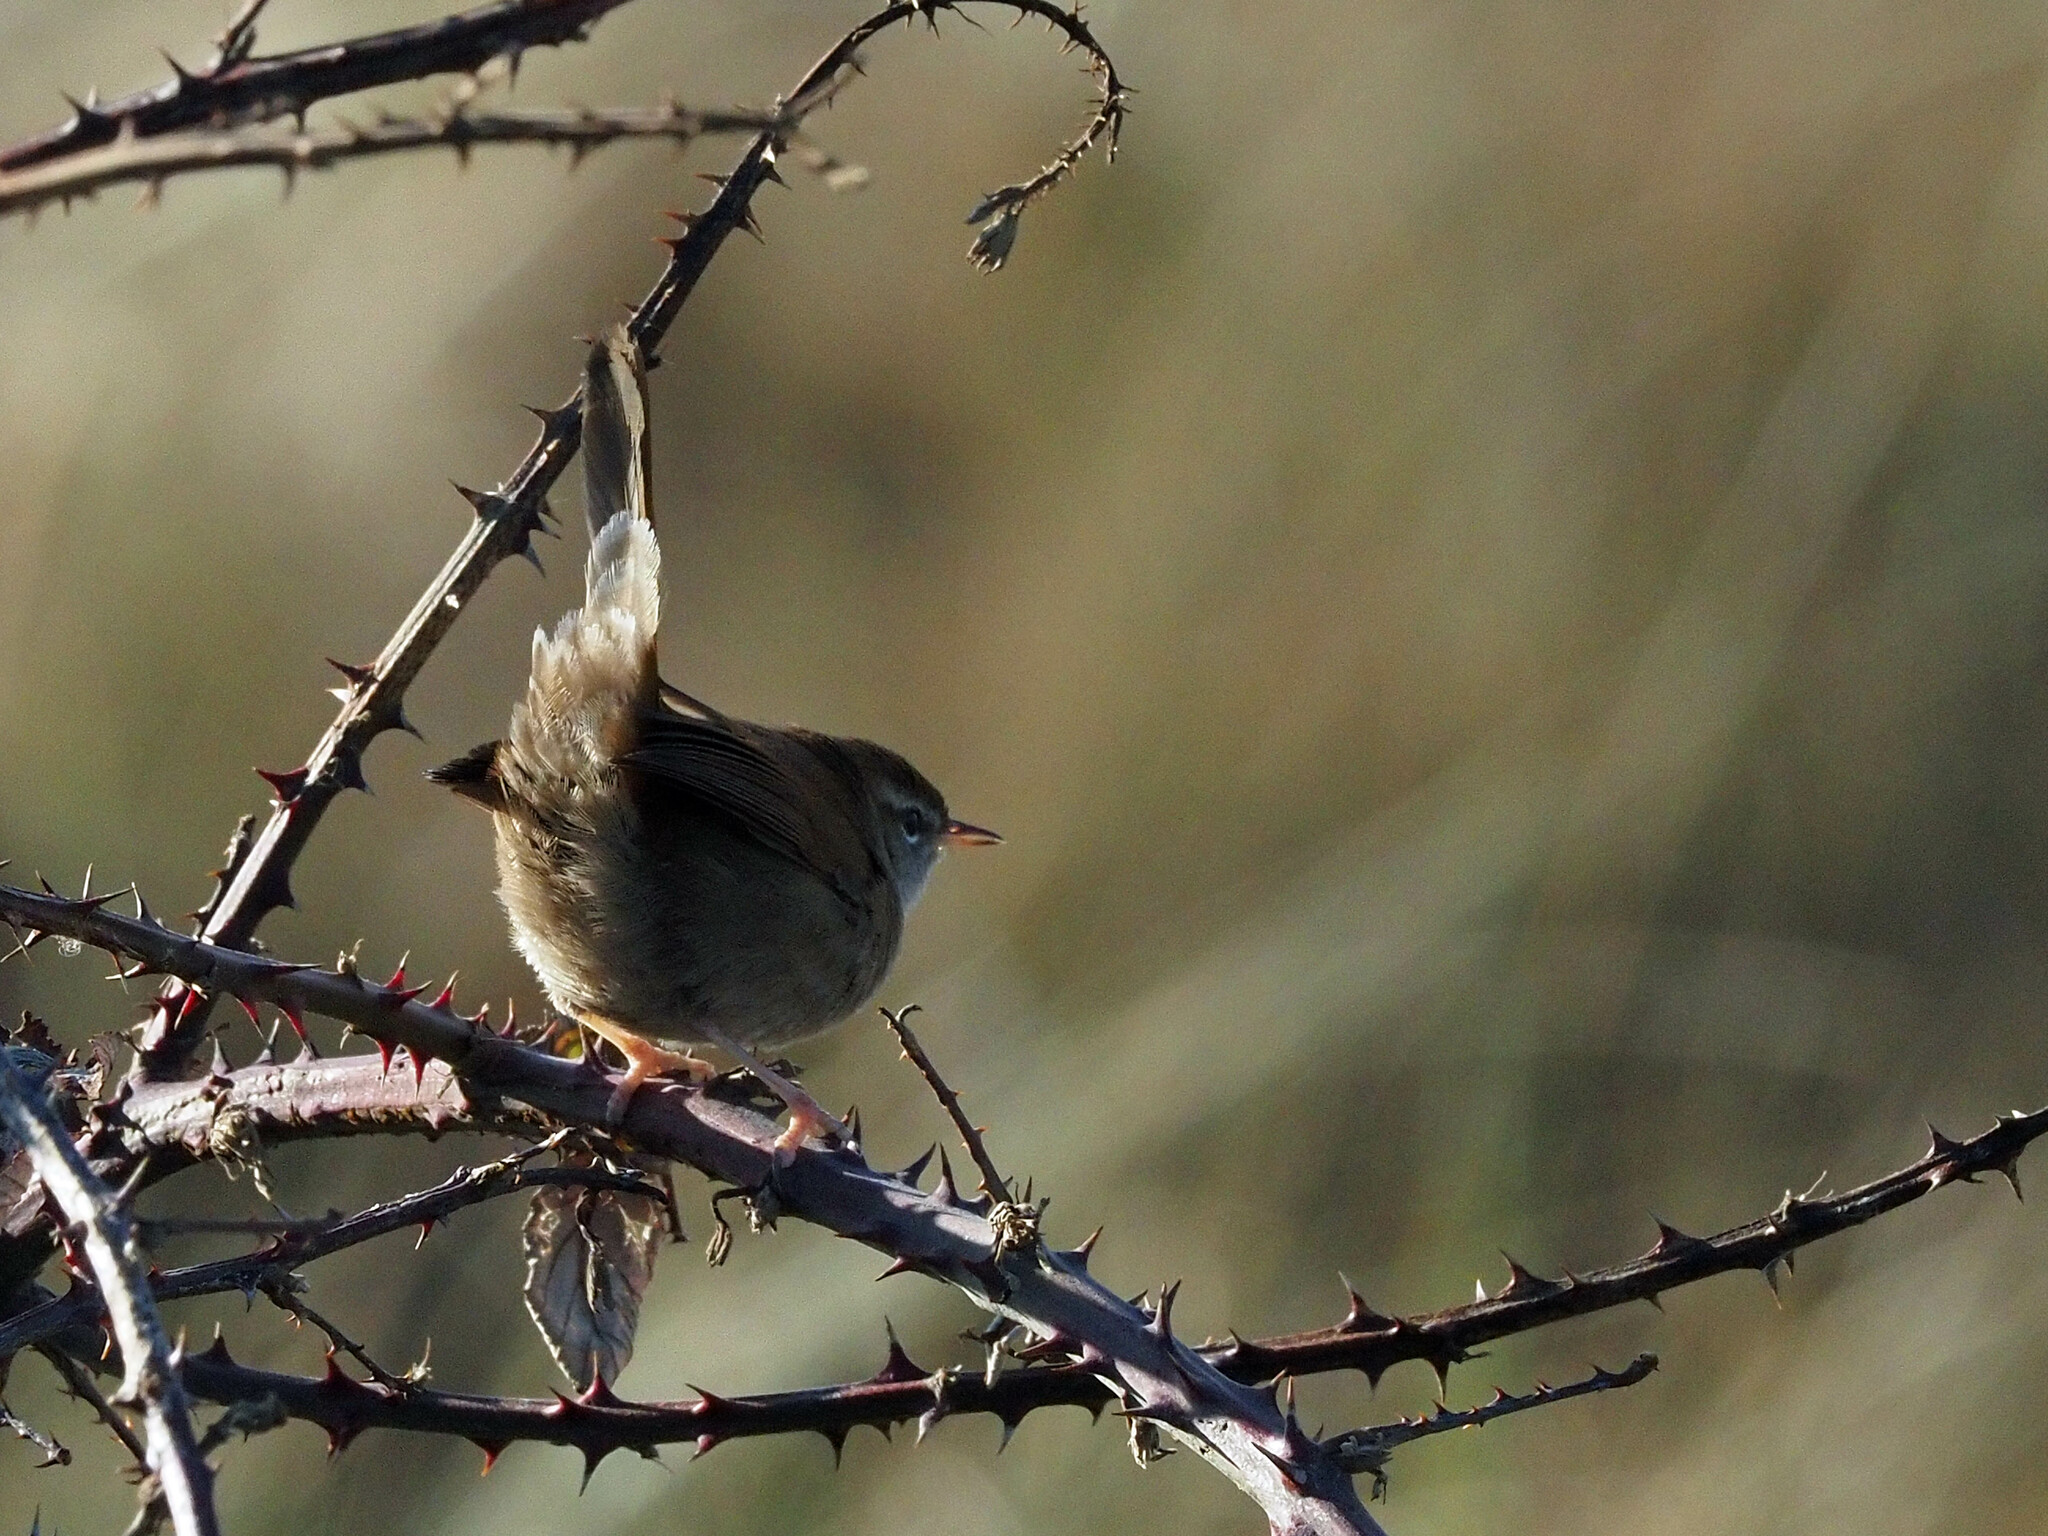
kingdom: Animalia
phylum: Chordata
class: Aves
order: Passeriformes
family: Cettiidae
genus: Cettia
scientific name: Cettia cetti
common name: Cetti's warbler
